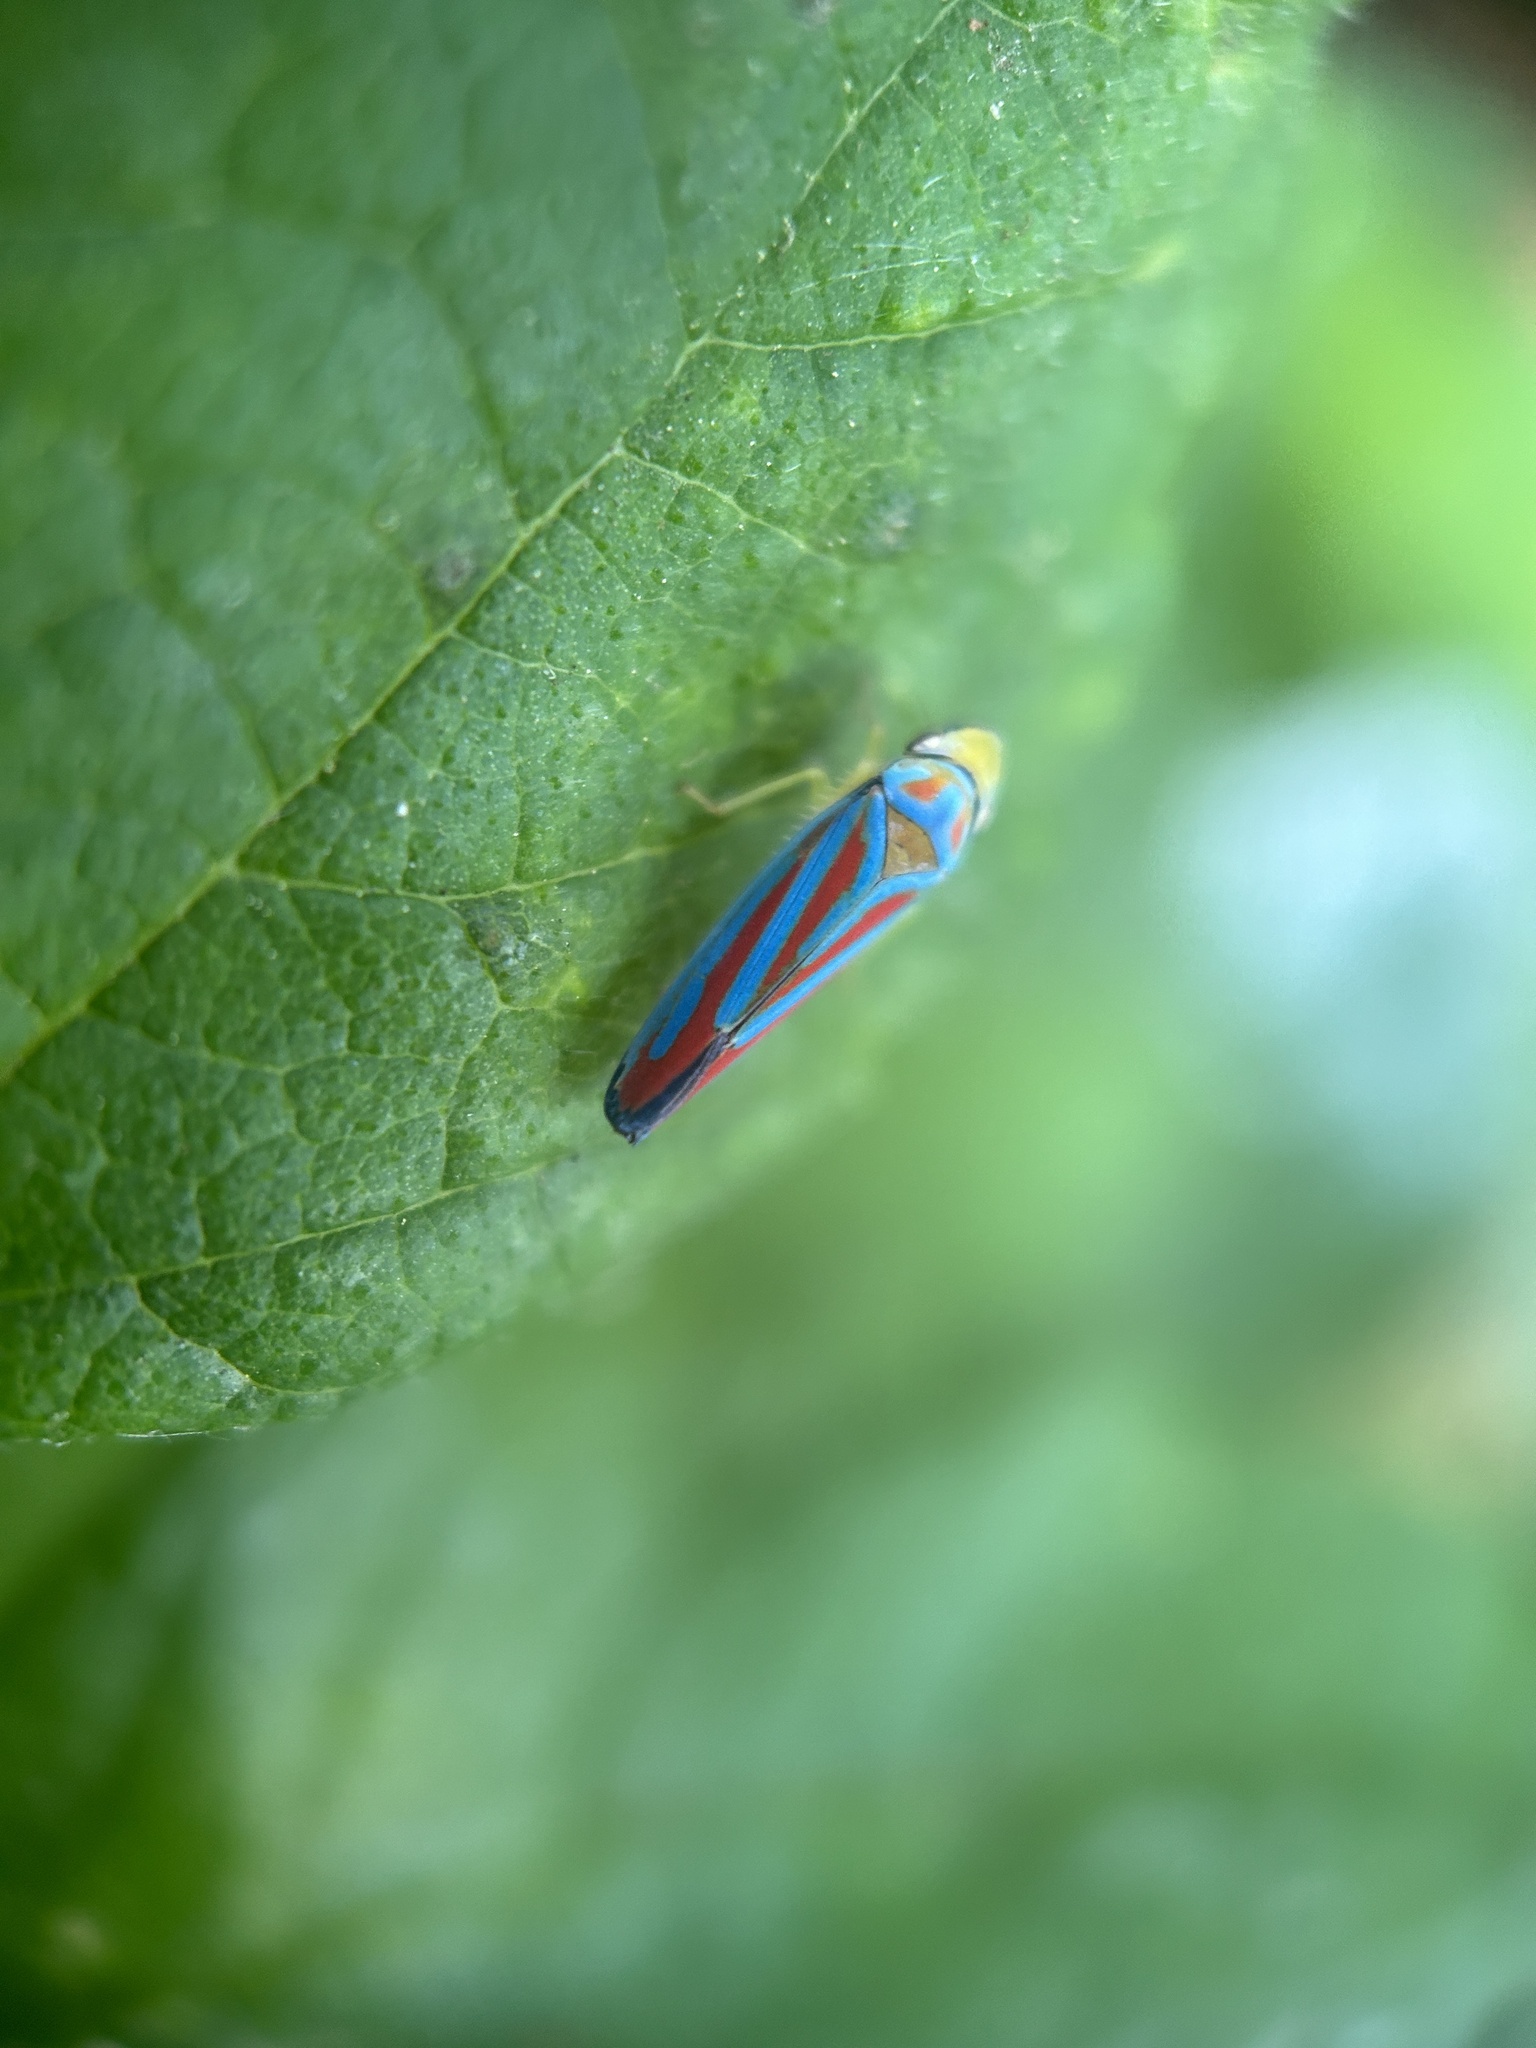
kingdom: Animalia
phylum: Arthropoda
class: Insecta
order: Hemiptera
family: Cicadellidae
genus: Graphocephala
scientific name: Graphocephala coccinea
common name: Candy-striped leafhopper
